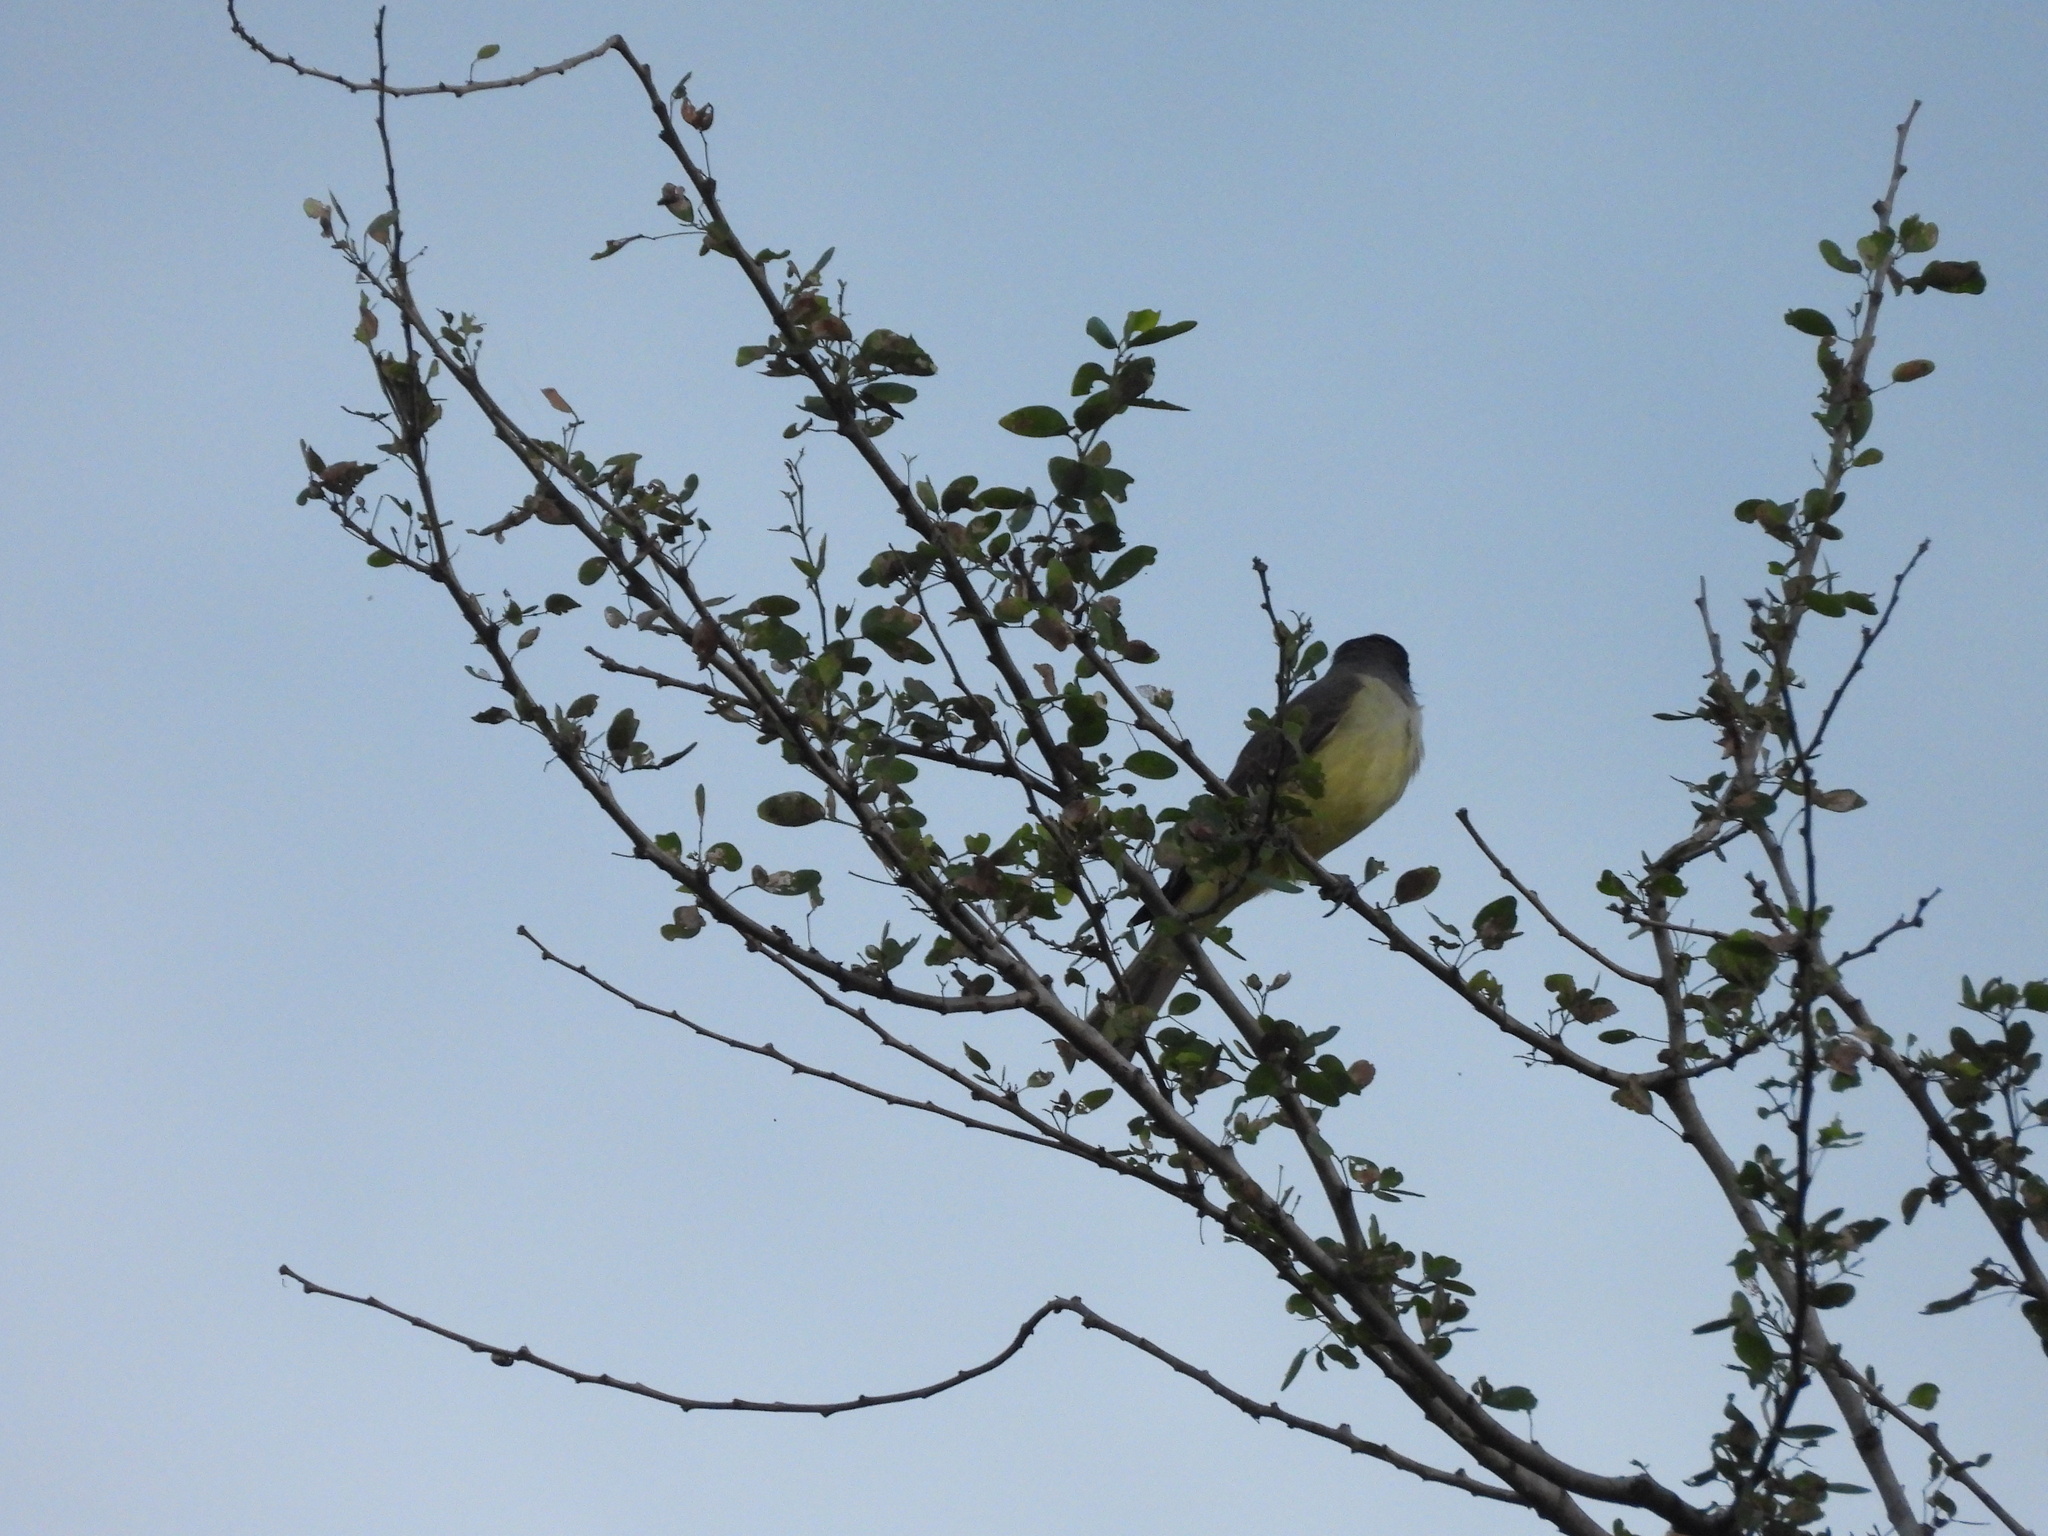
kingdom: Animalia
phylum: Chordata
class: Aves
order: Passeriformes
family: Tyrannidae
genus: Tyrannus
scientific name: Tyrannus crassirostris
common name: Thick-billed kingbird
